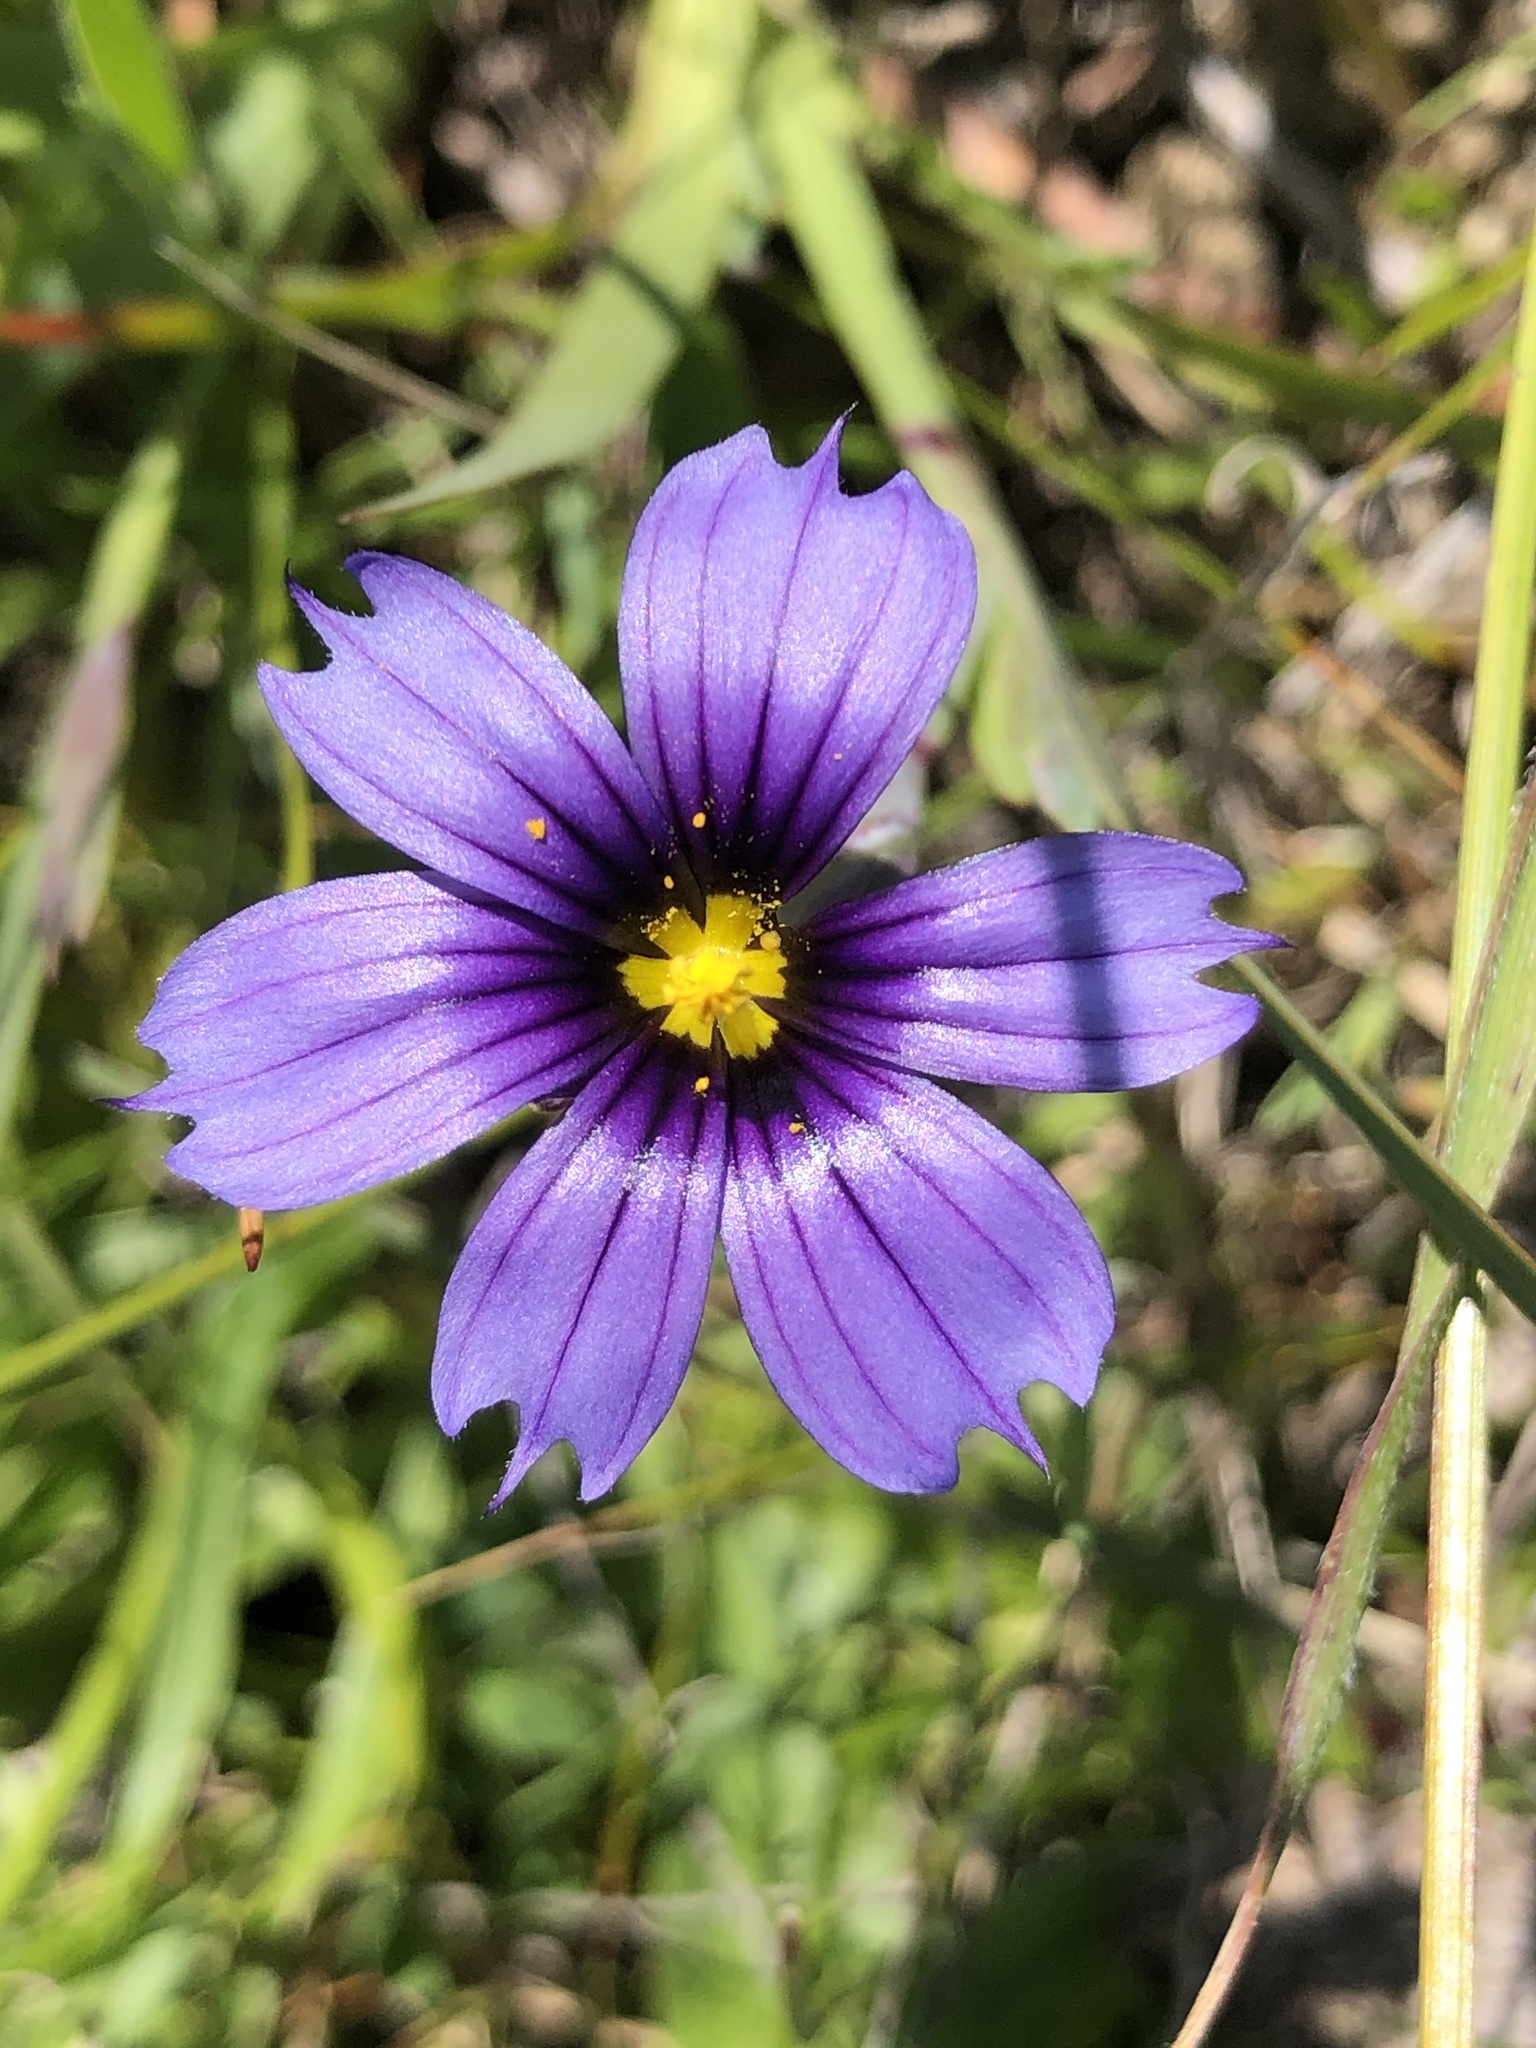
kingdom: Plantae
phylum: Tracheophyta
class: Liliopsida
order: Asparagales
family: Iridaceae
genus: Sisyrinchium
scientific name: Sisyrinchium bellum
